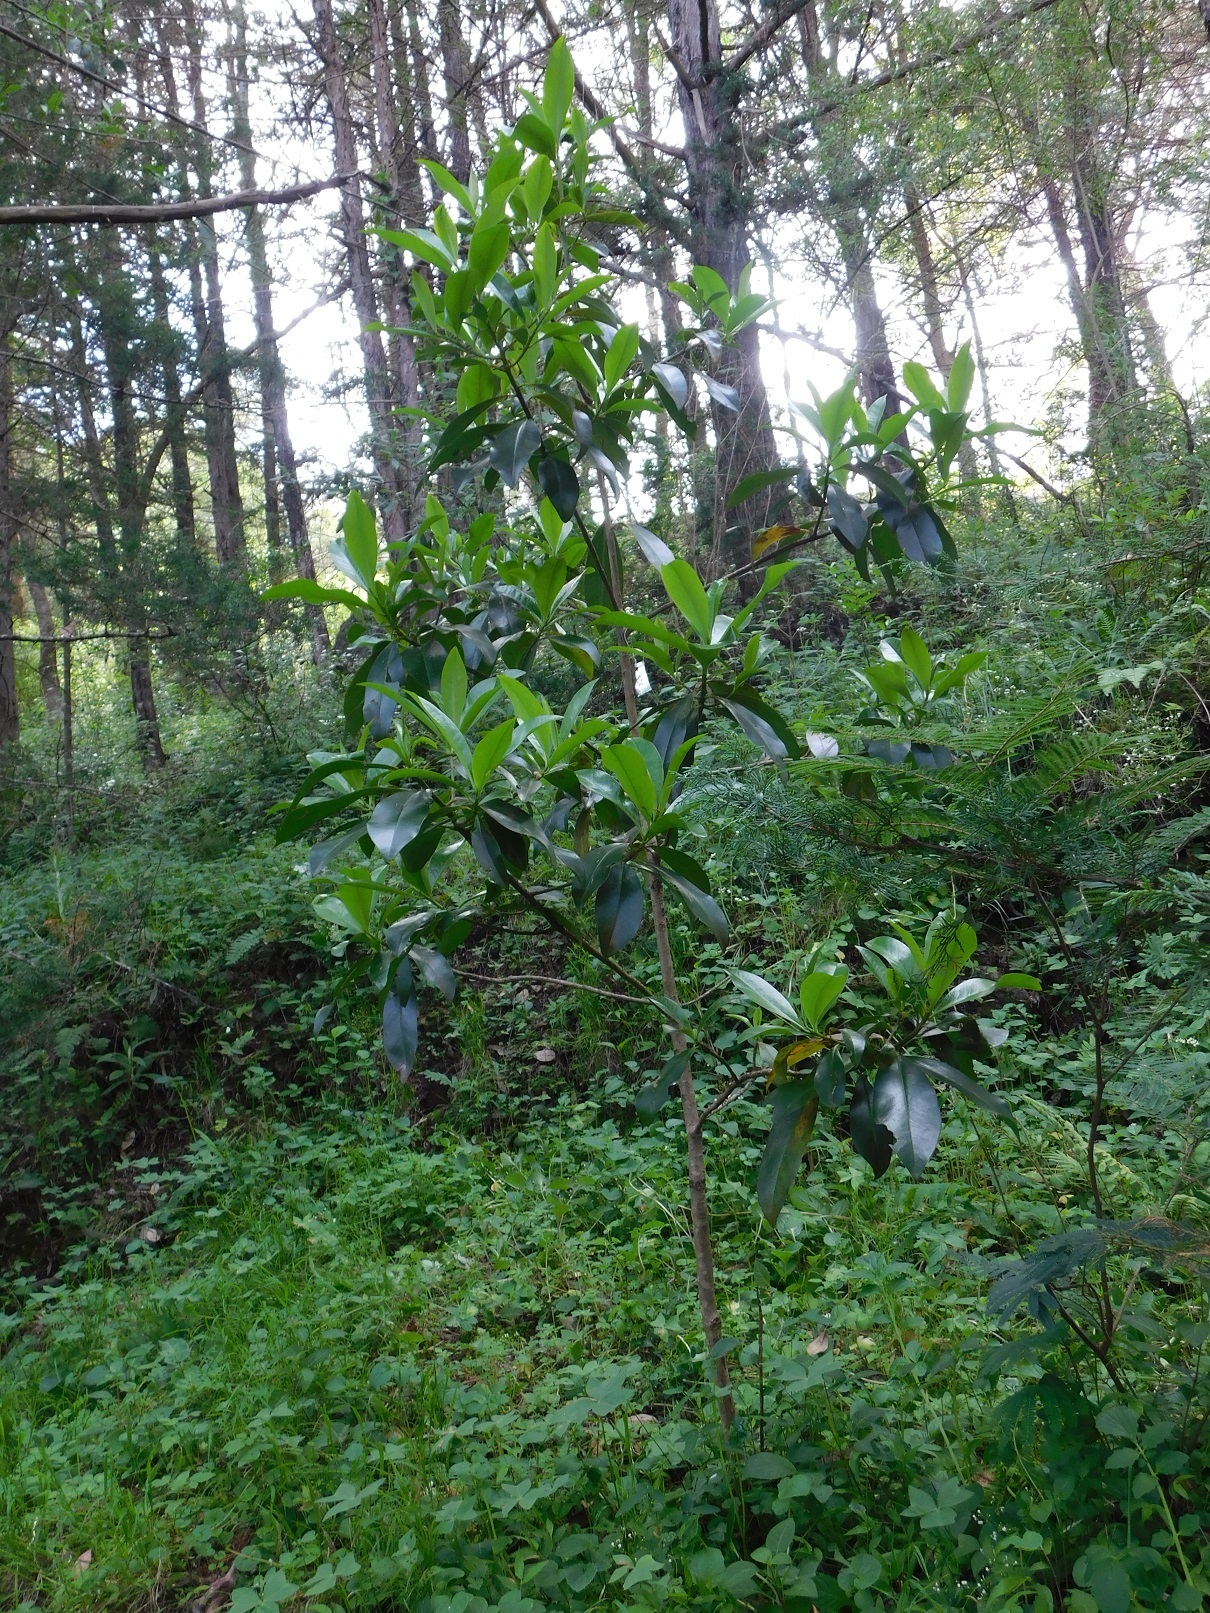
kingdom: Plantae
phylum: Tracheophyta
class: Magnoliopsida
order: Ericales
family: Primulaceae
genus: Myrsine
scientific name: Myrsine juergensenii
